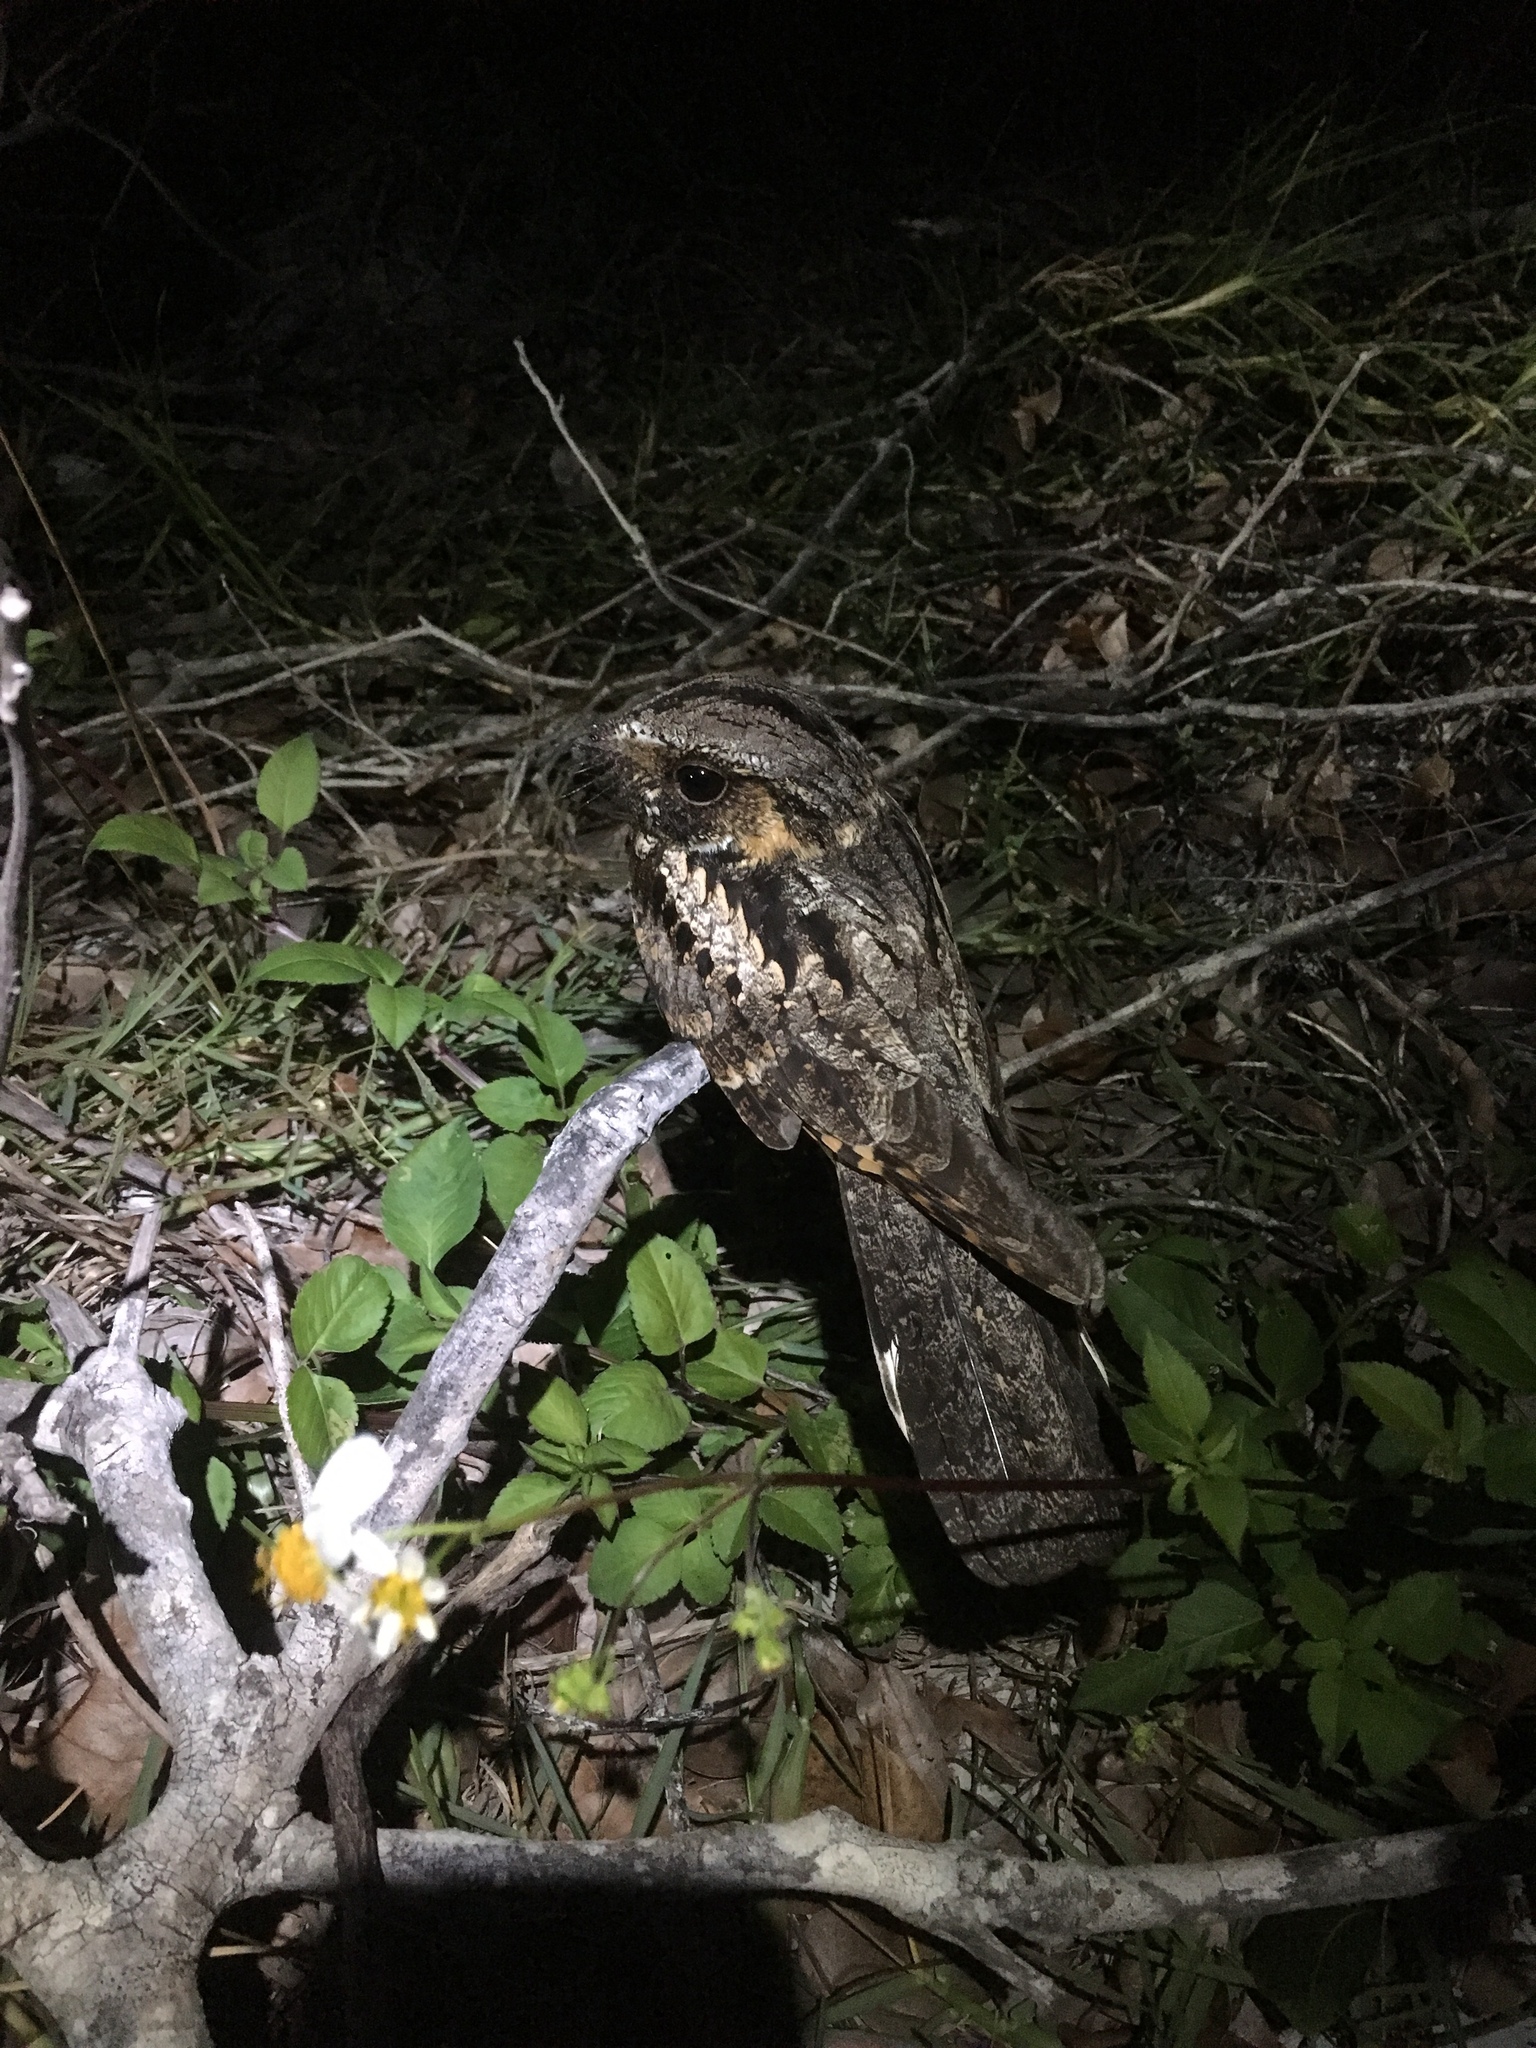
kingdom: Animalia
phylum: Chordata
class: Aves
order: Caprimulgiformes
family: Caprimulgidae
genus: Antrostomus
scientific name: Antrostomus vociferus
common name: Eastern whip-poor-will
